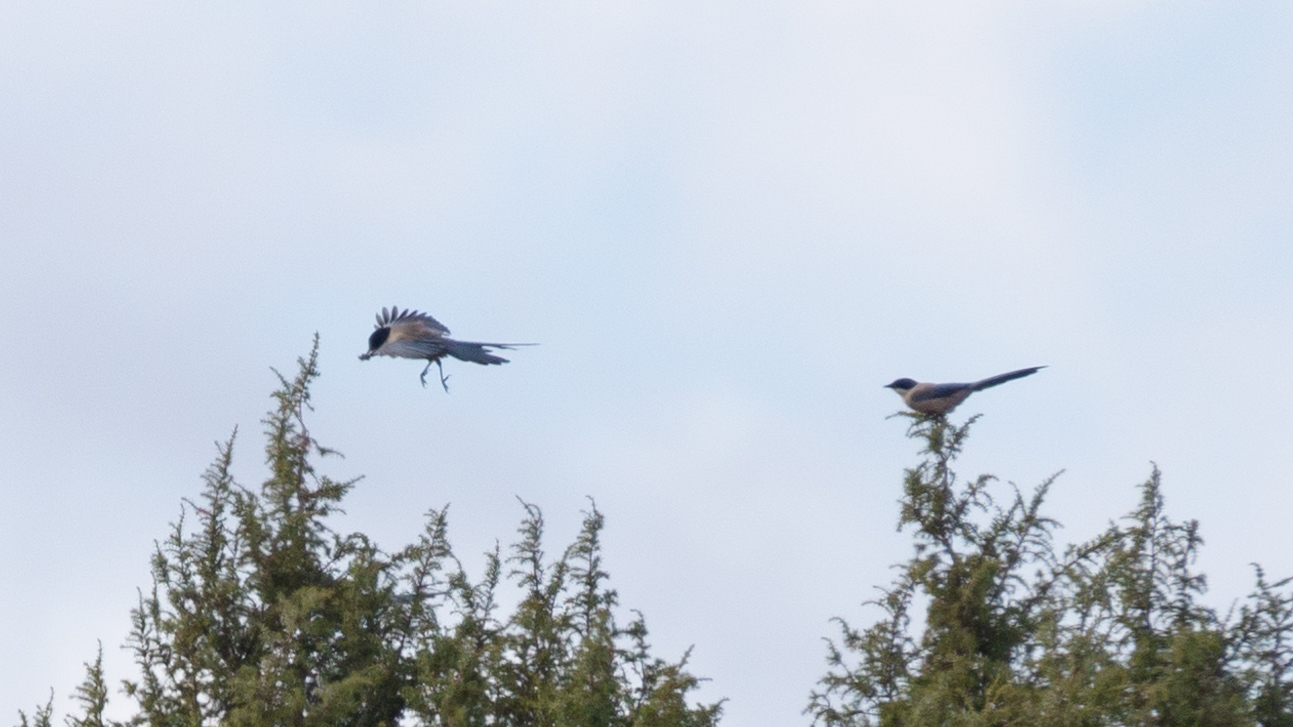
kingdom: Animalia
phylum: Chordata
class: Aves
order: Passeriformes
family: Corvidae
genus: Cyanopica
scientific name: Cyanopica cooki
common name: Iberian magpie
